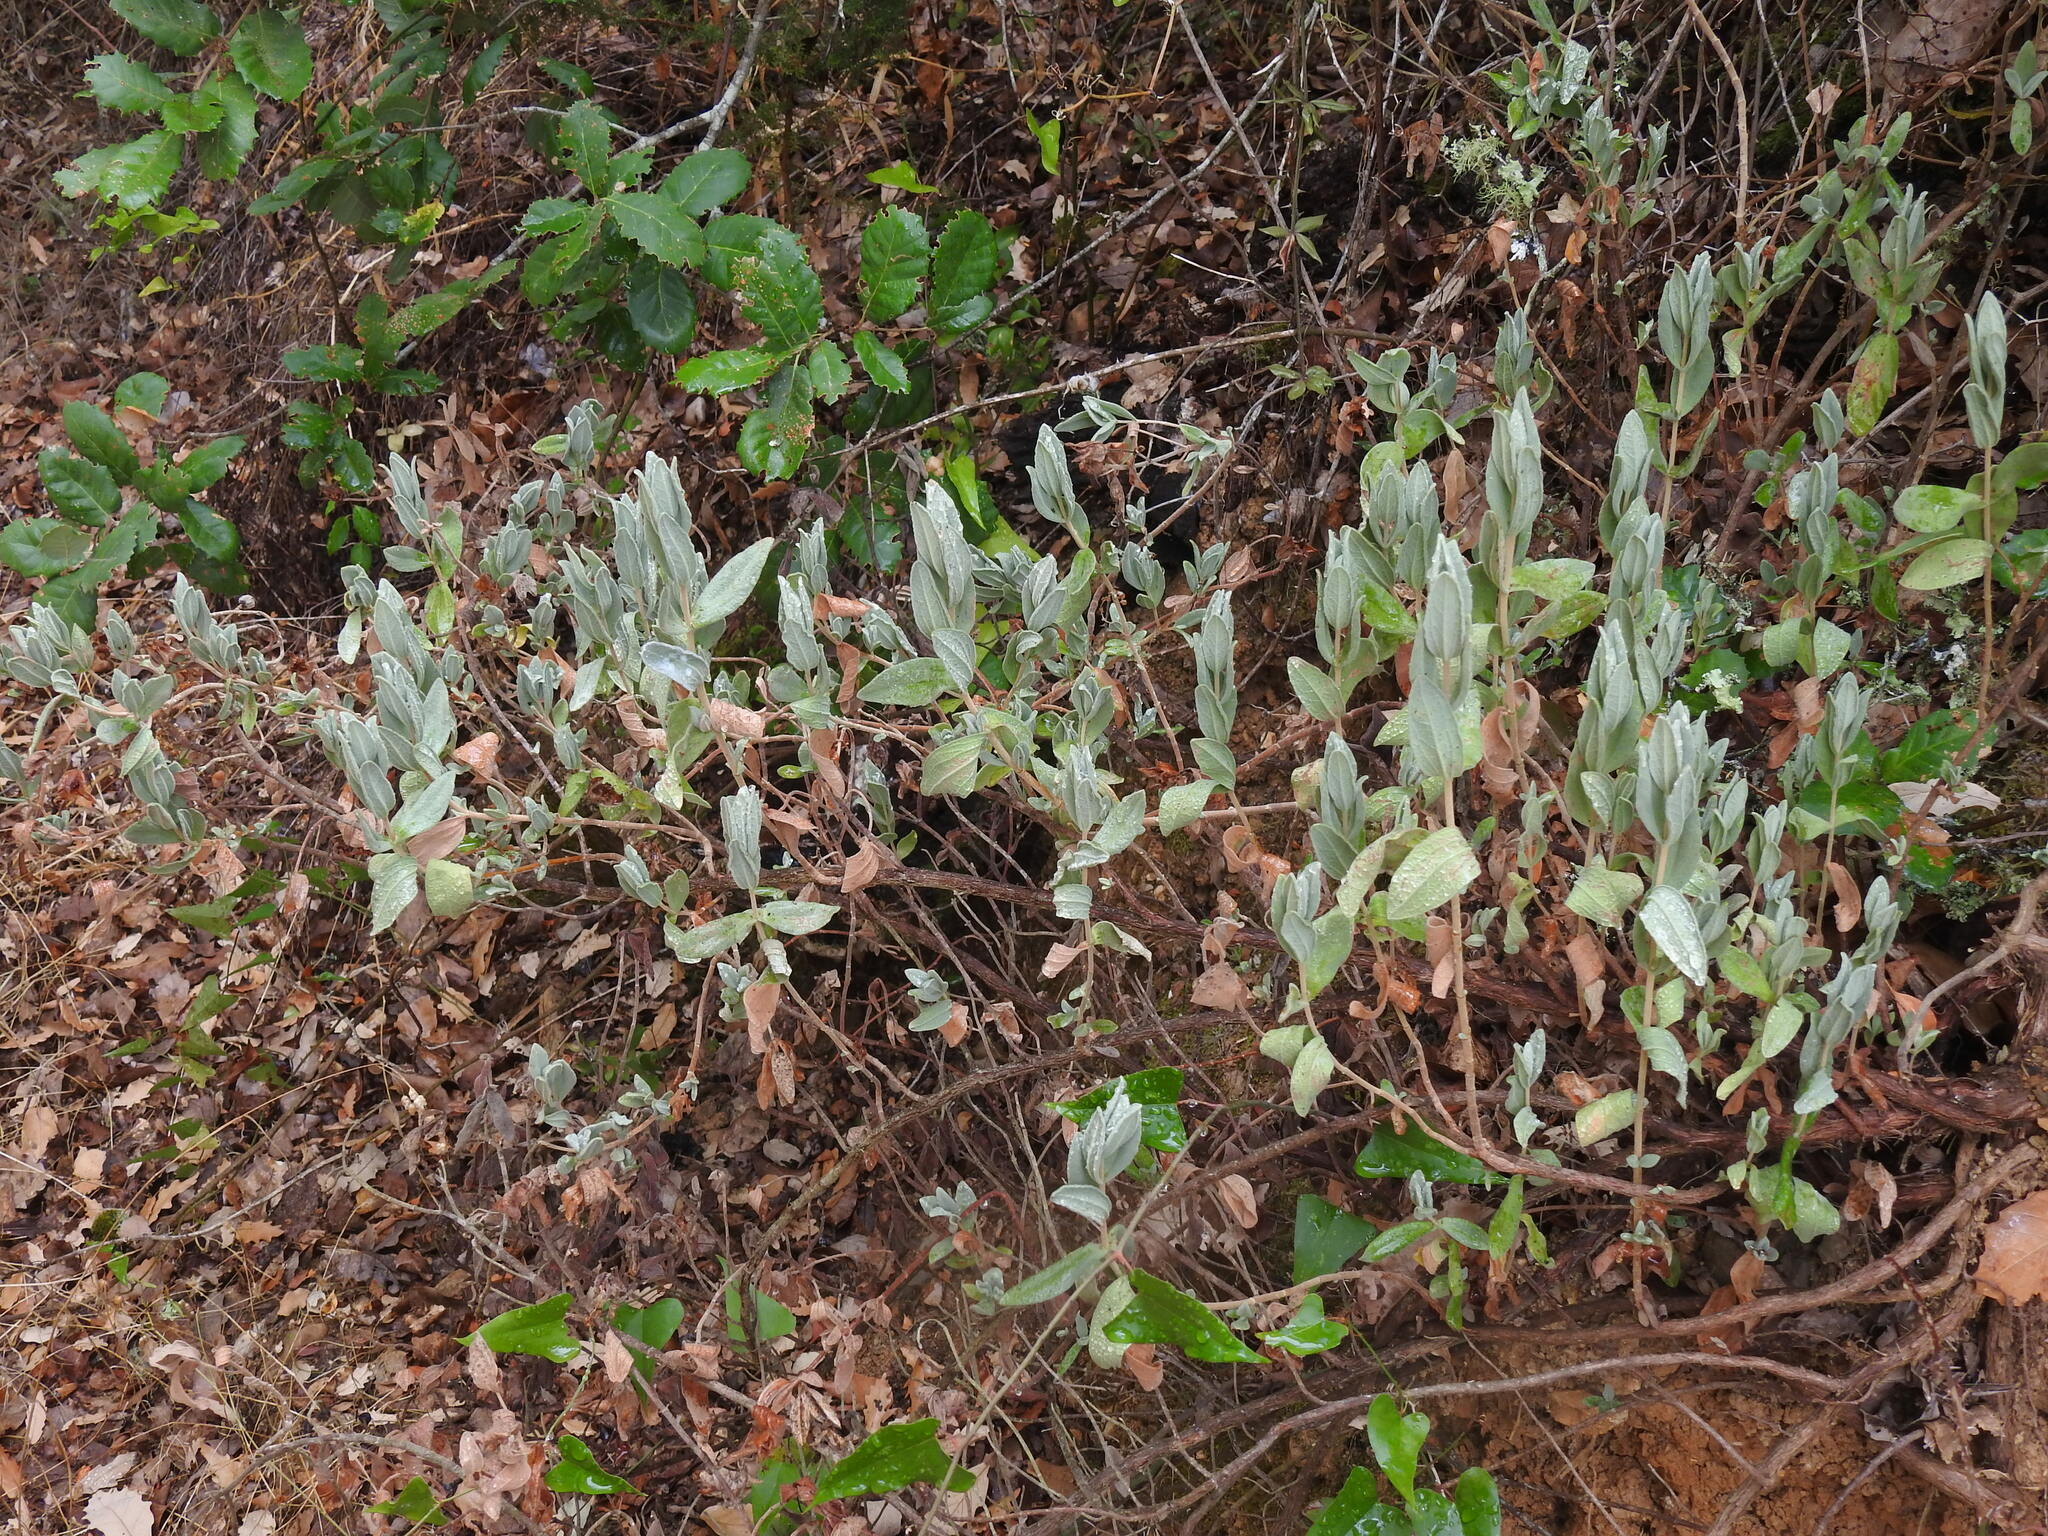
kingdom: Plantae
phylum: Tracheophyta
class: Magnoliopsida
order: Malvales
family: Cistaceae
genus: Cistus
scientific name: Cistus albidus
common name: White-leaf rock-rose
